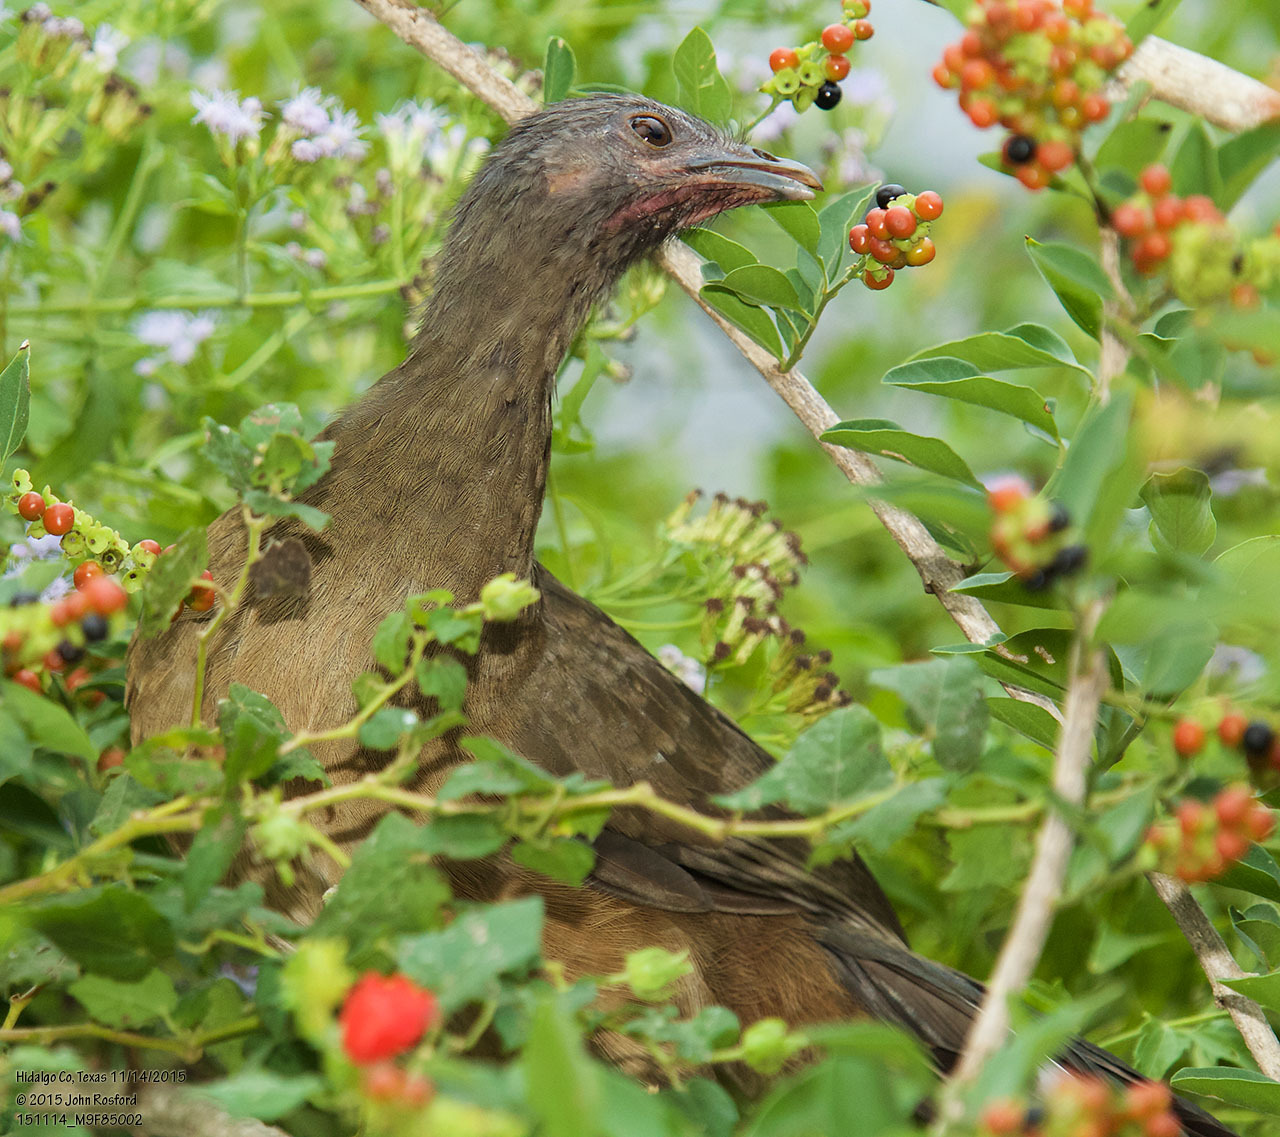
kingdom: Animalia
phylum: Chordata
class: Aves
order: Galliformes
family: Cracidae
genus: Ortalis
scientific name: Ortalis vetula
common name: Plain chachalaca
